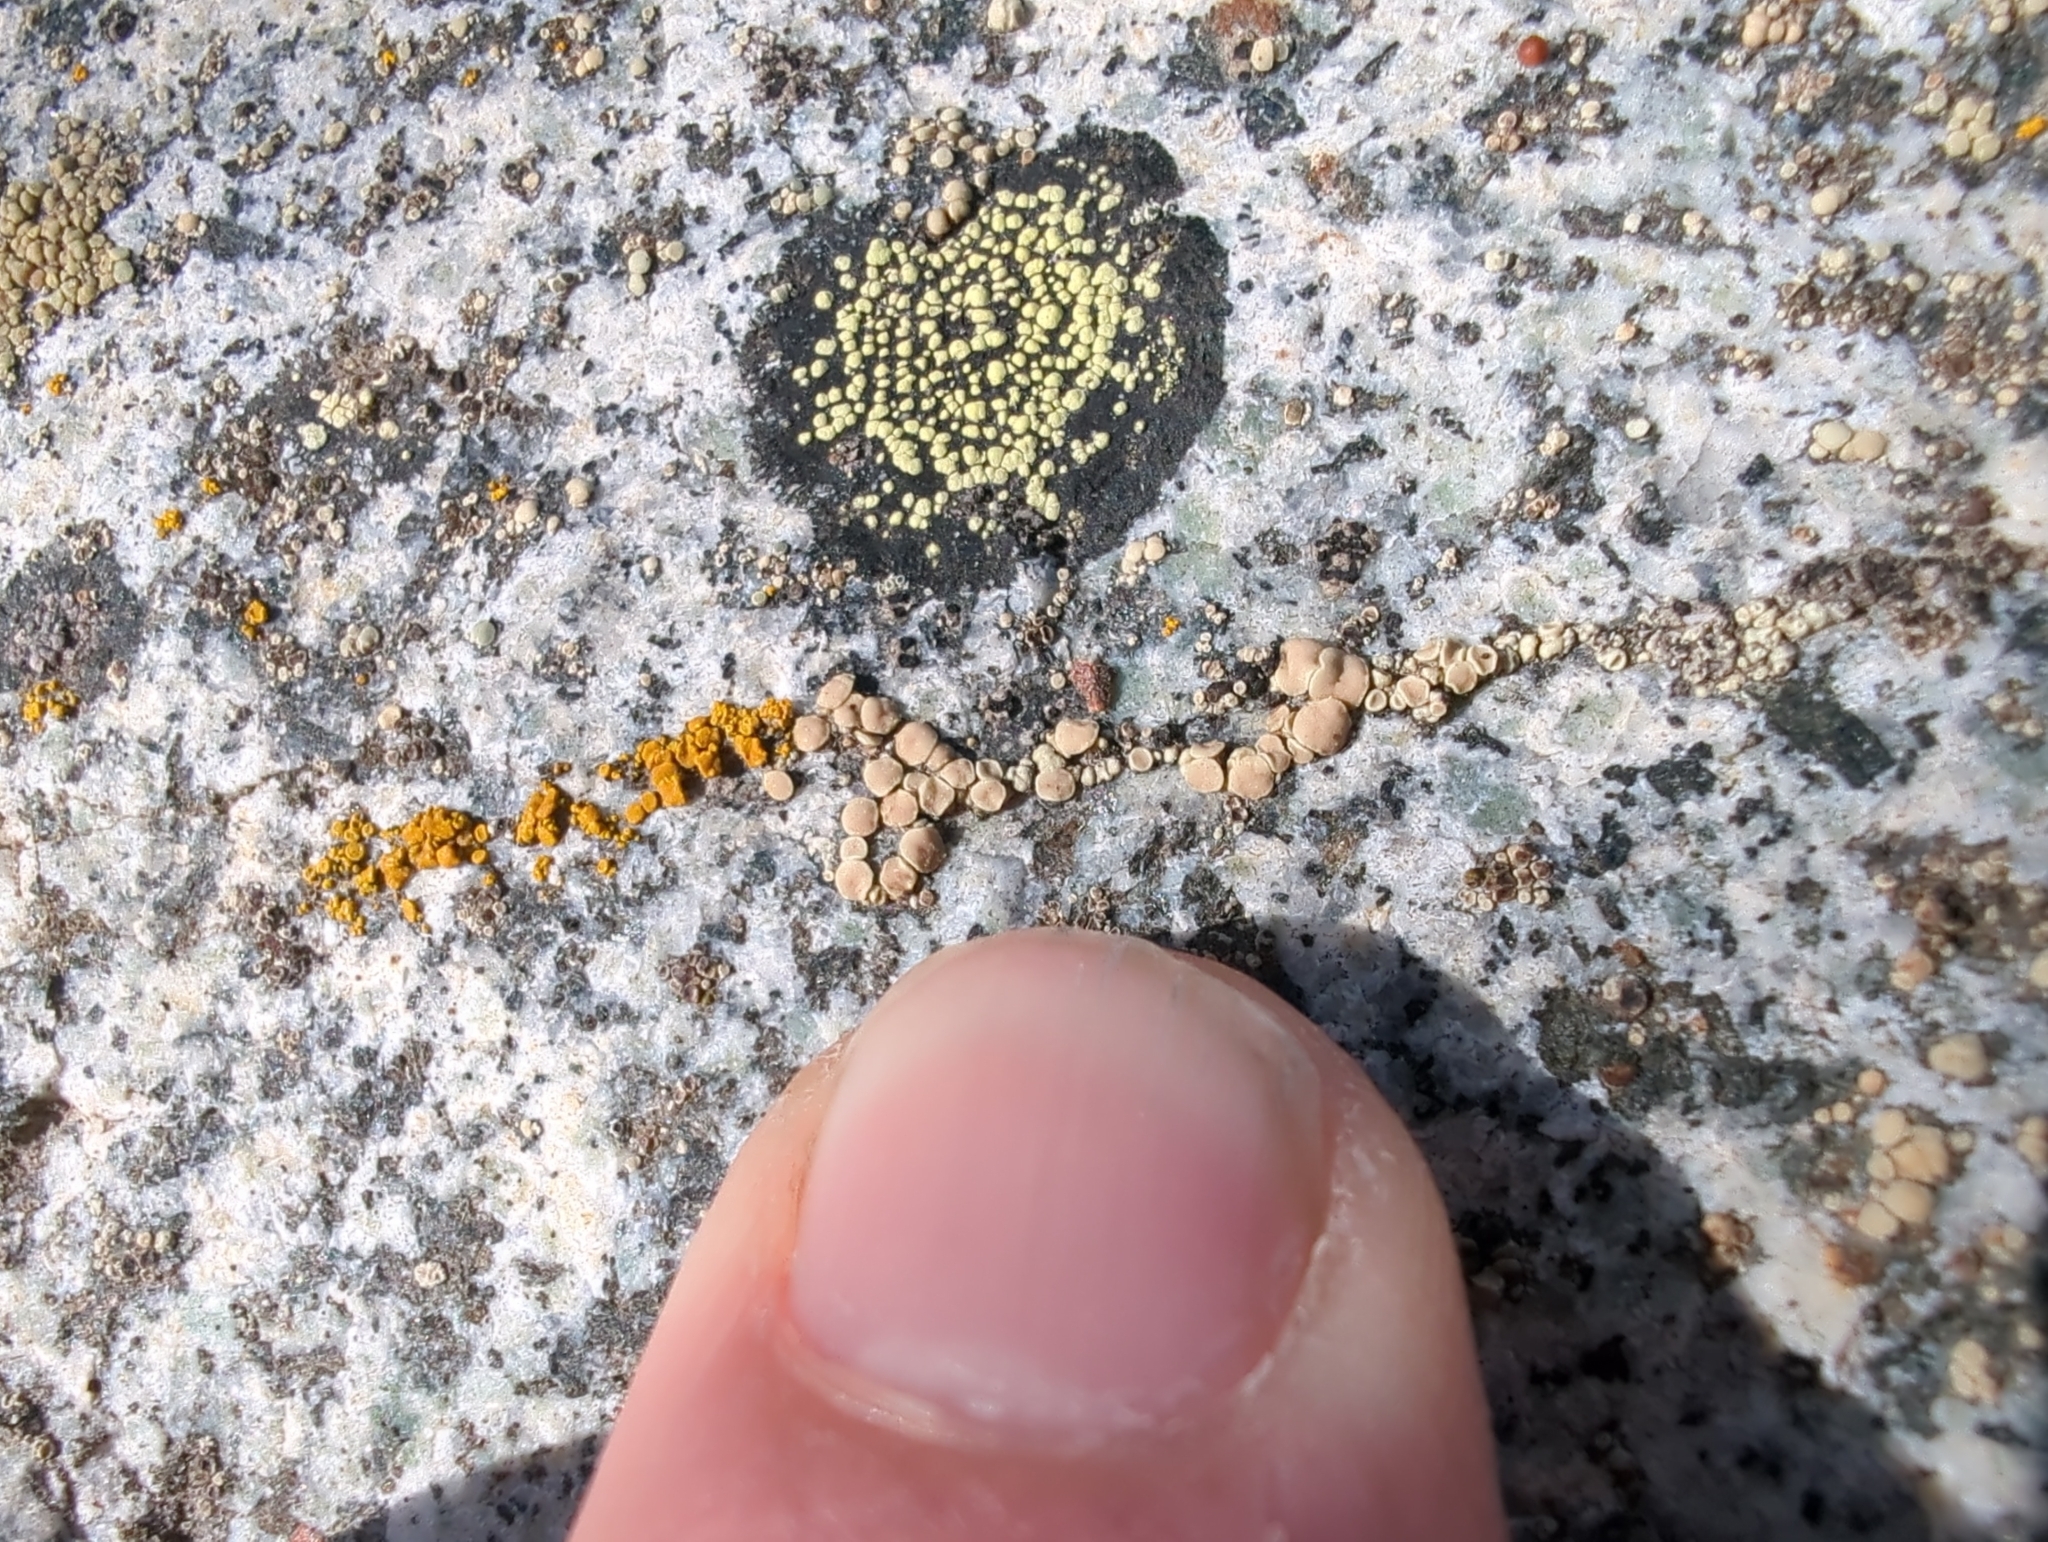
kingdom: Fungi
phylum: Ascomycota
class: Lecanoromycetes
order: Lecanorales
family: Lecanoraceae
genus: Lecanora
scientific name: Lecanora polytropa
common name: Granite-speck rim lichen
